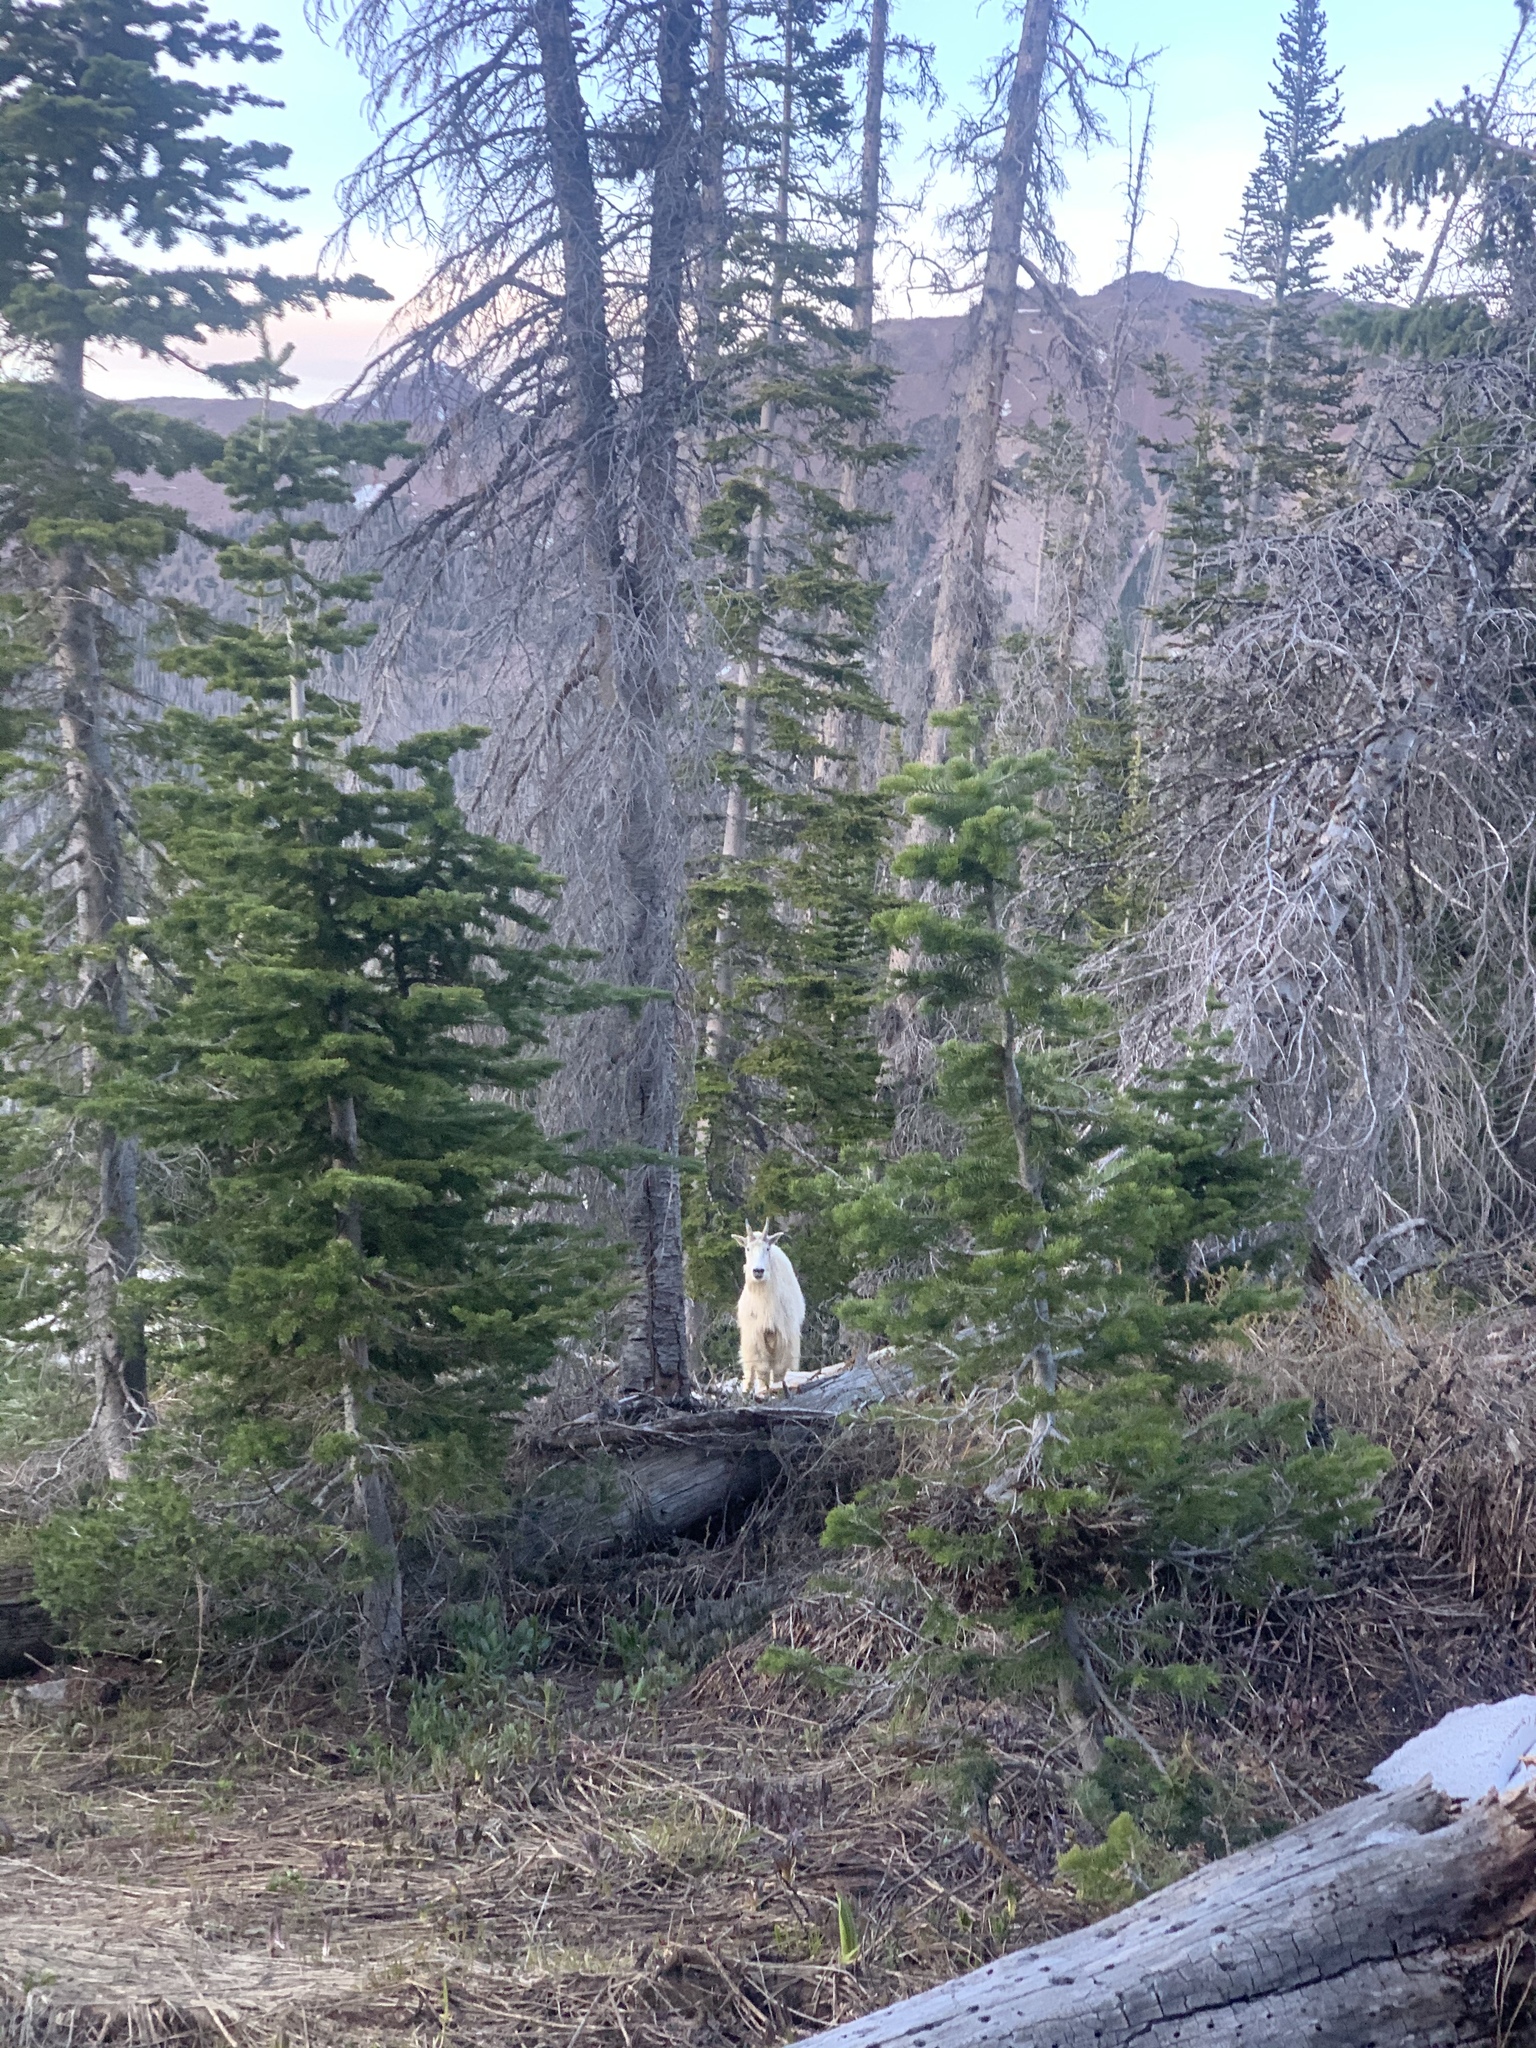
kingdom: Animalia
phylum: Chordata
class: Mammalia
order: Artiodactyla
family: Bovidae
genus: Oreamnos
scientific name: Oreamnos americanus
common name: Mountain goat
